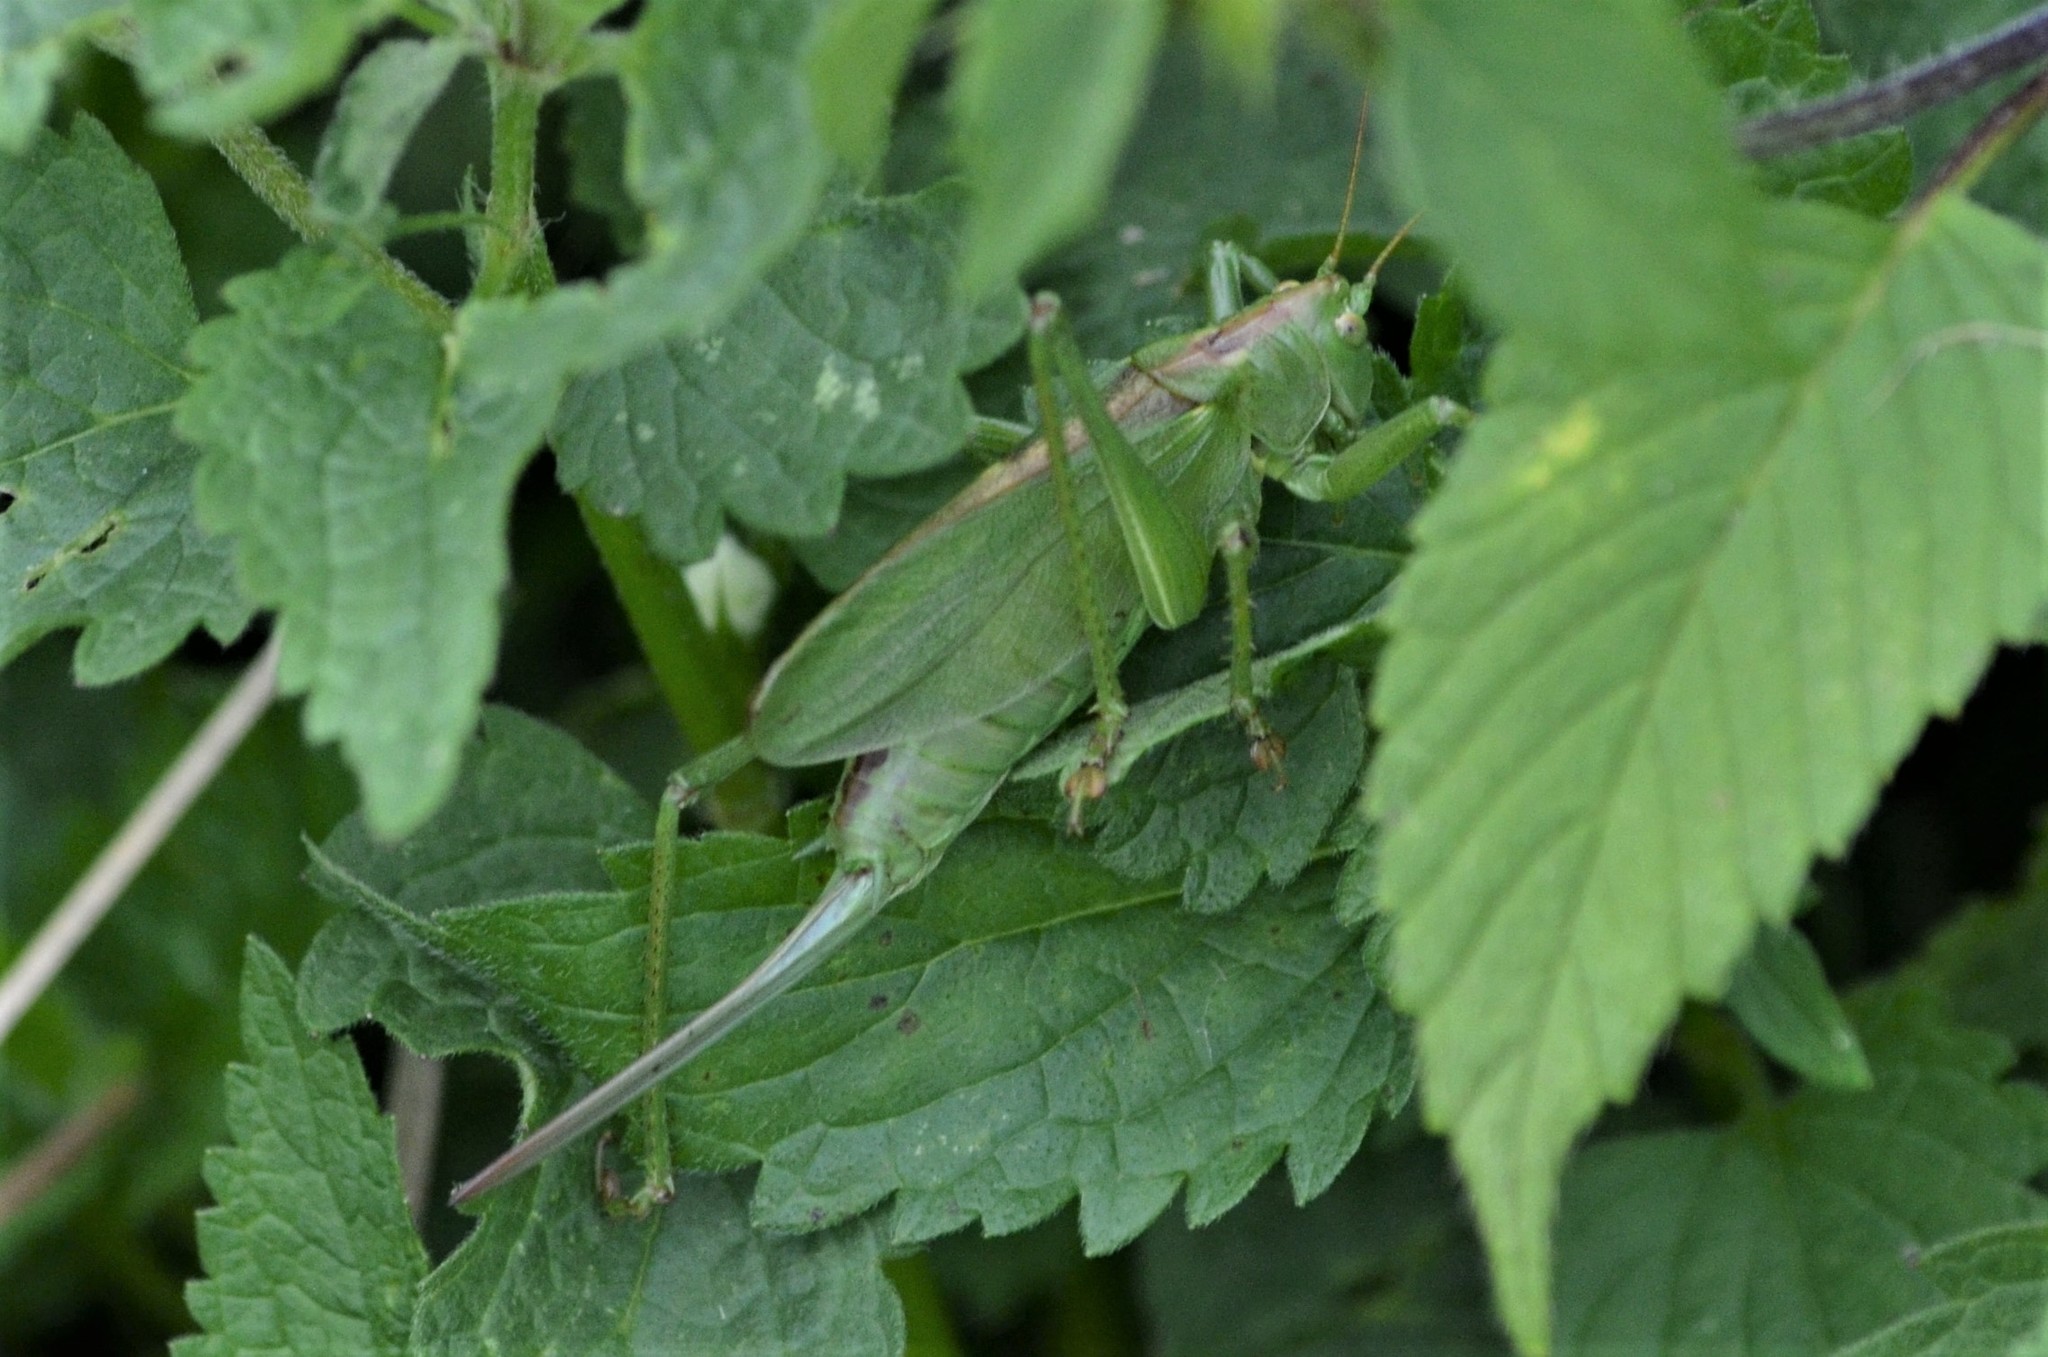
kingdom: Animalia
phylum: Arthropoda
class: Insecta
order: Orthoptera
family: Tettigoniidae
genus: Tettigonia
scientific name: Tettigonia cantans
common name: Upland green bush-cricket
